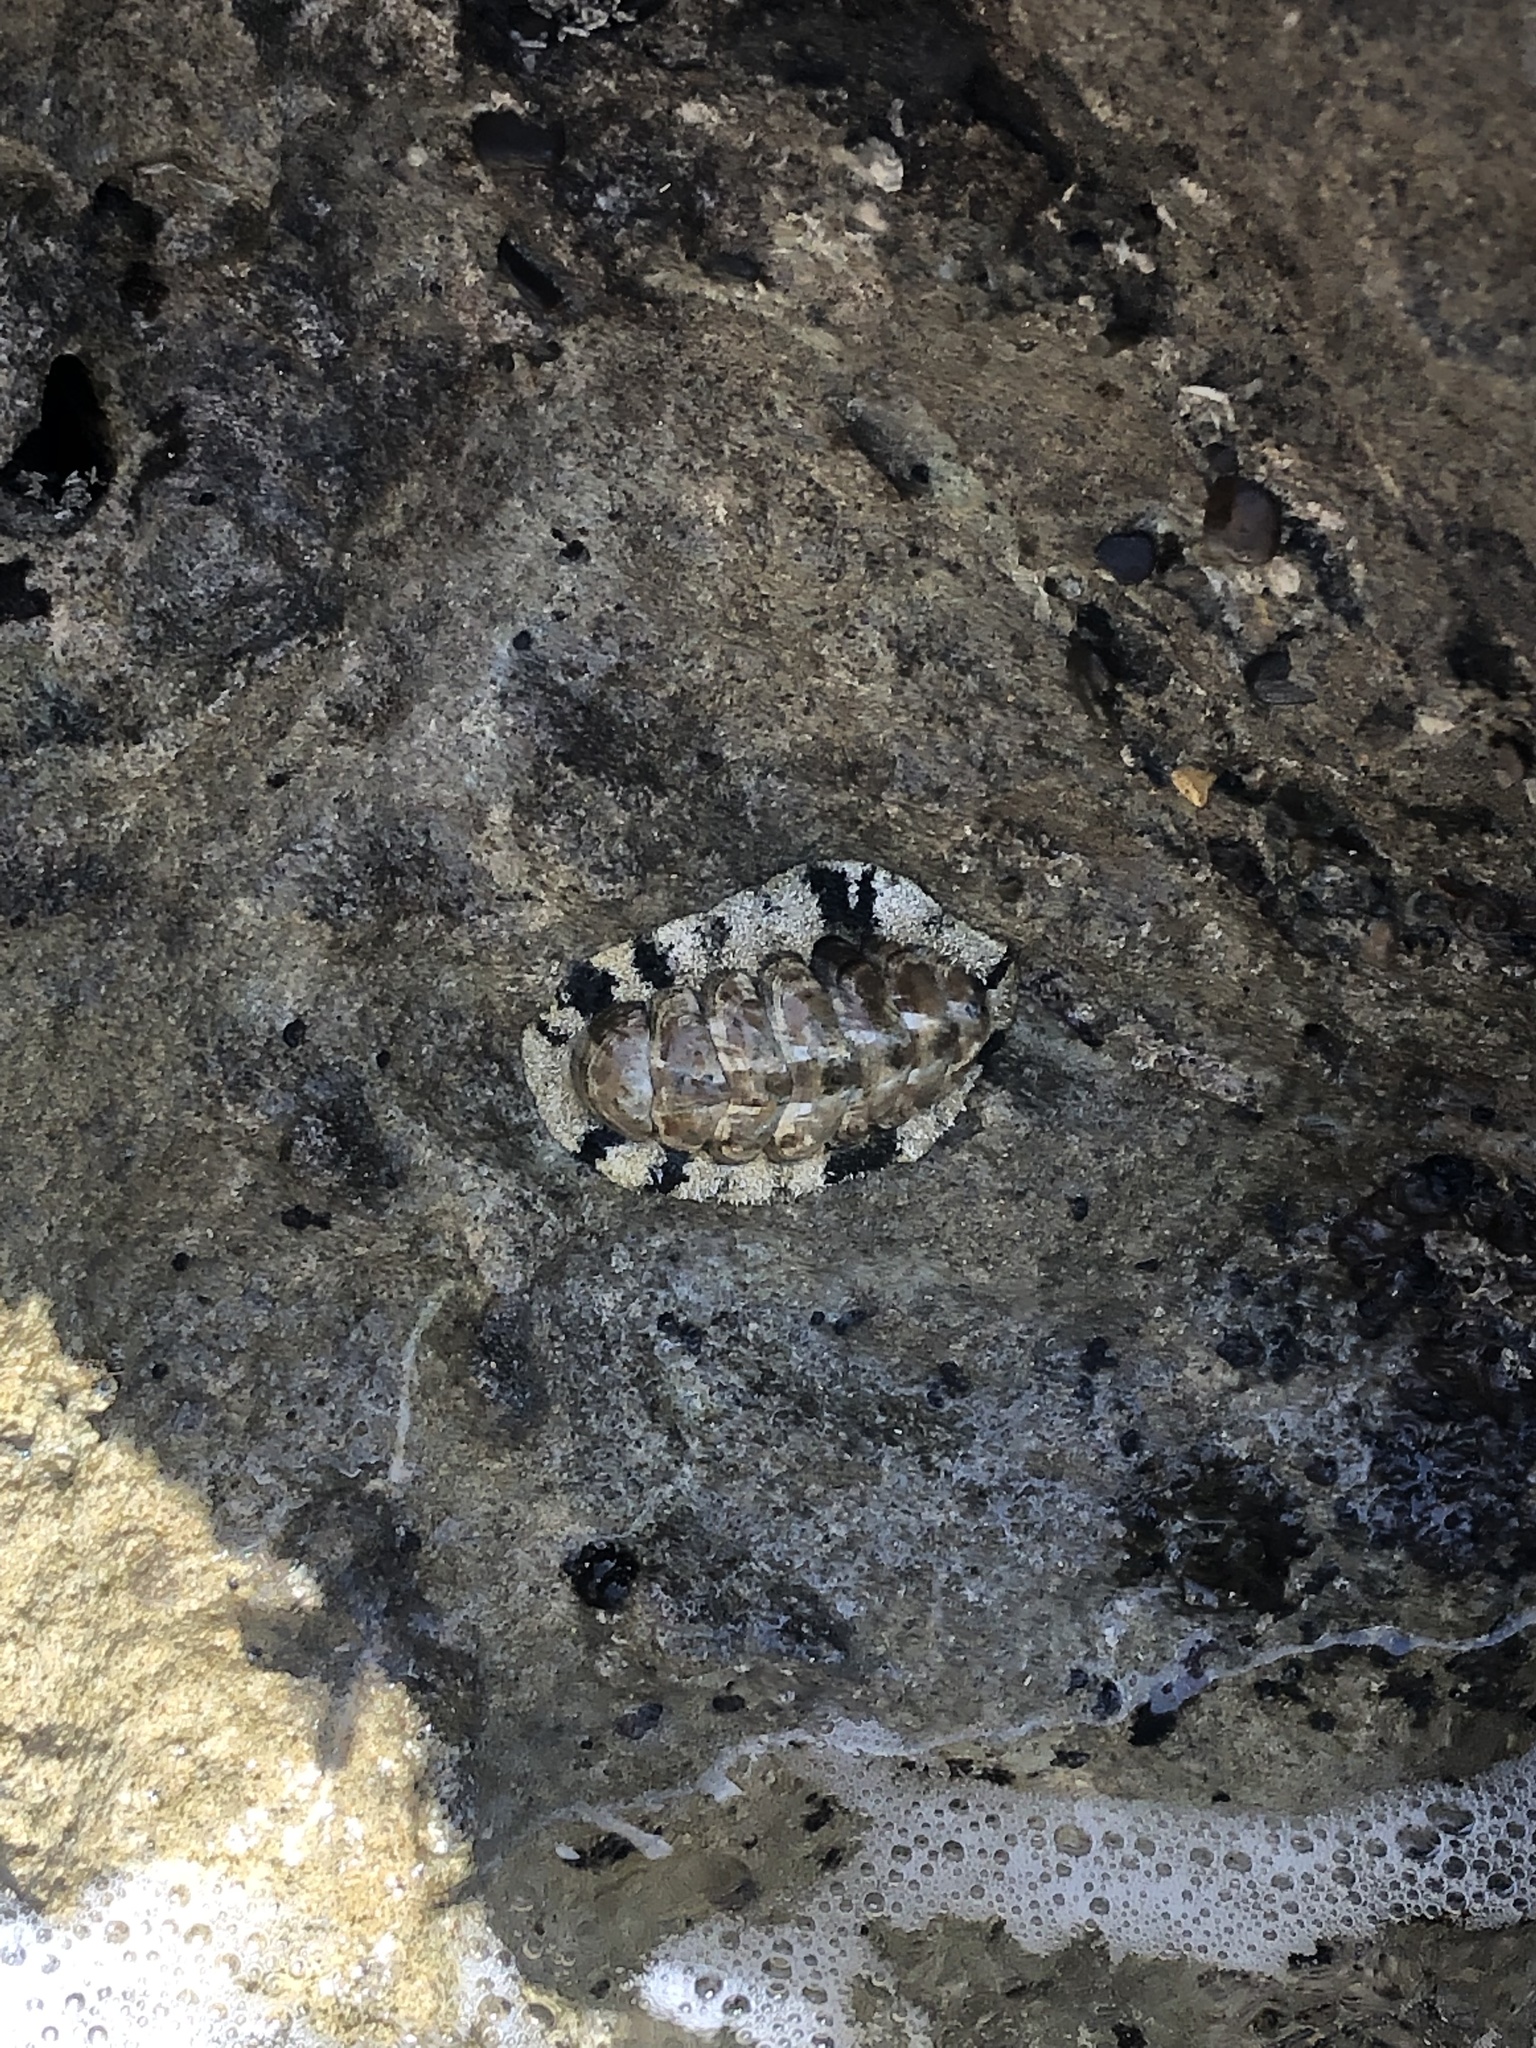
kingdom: Animalia
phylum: Mollusca
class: Polyplacophora
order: Chitonida
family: Chitonidae
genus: Acanthopleura
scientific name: Acanthopleura granulata
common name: West indian fuzzy chiton
